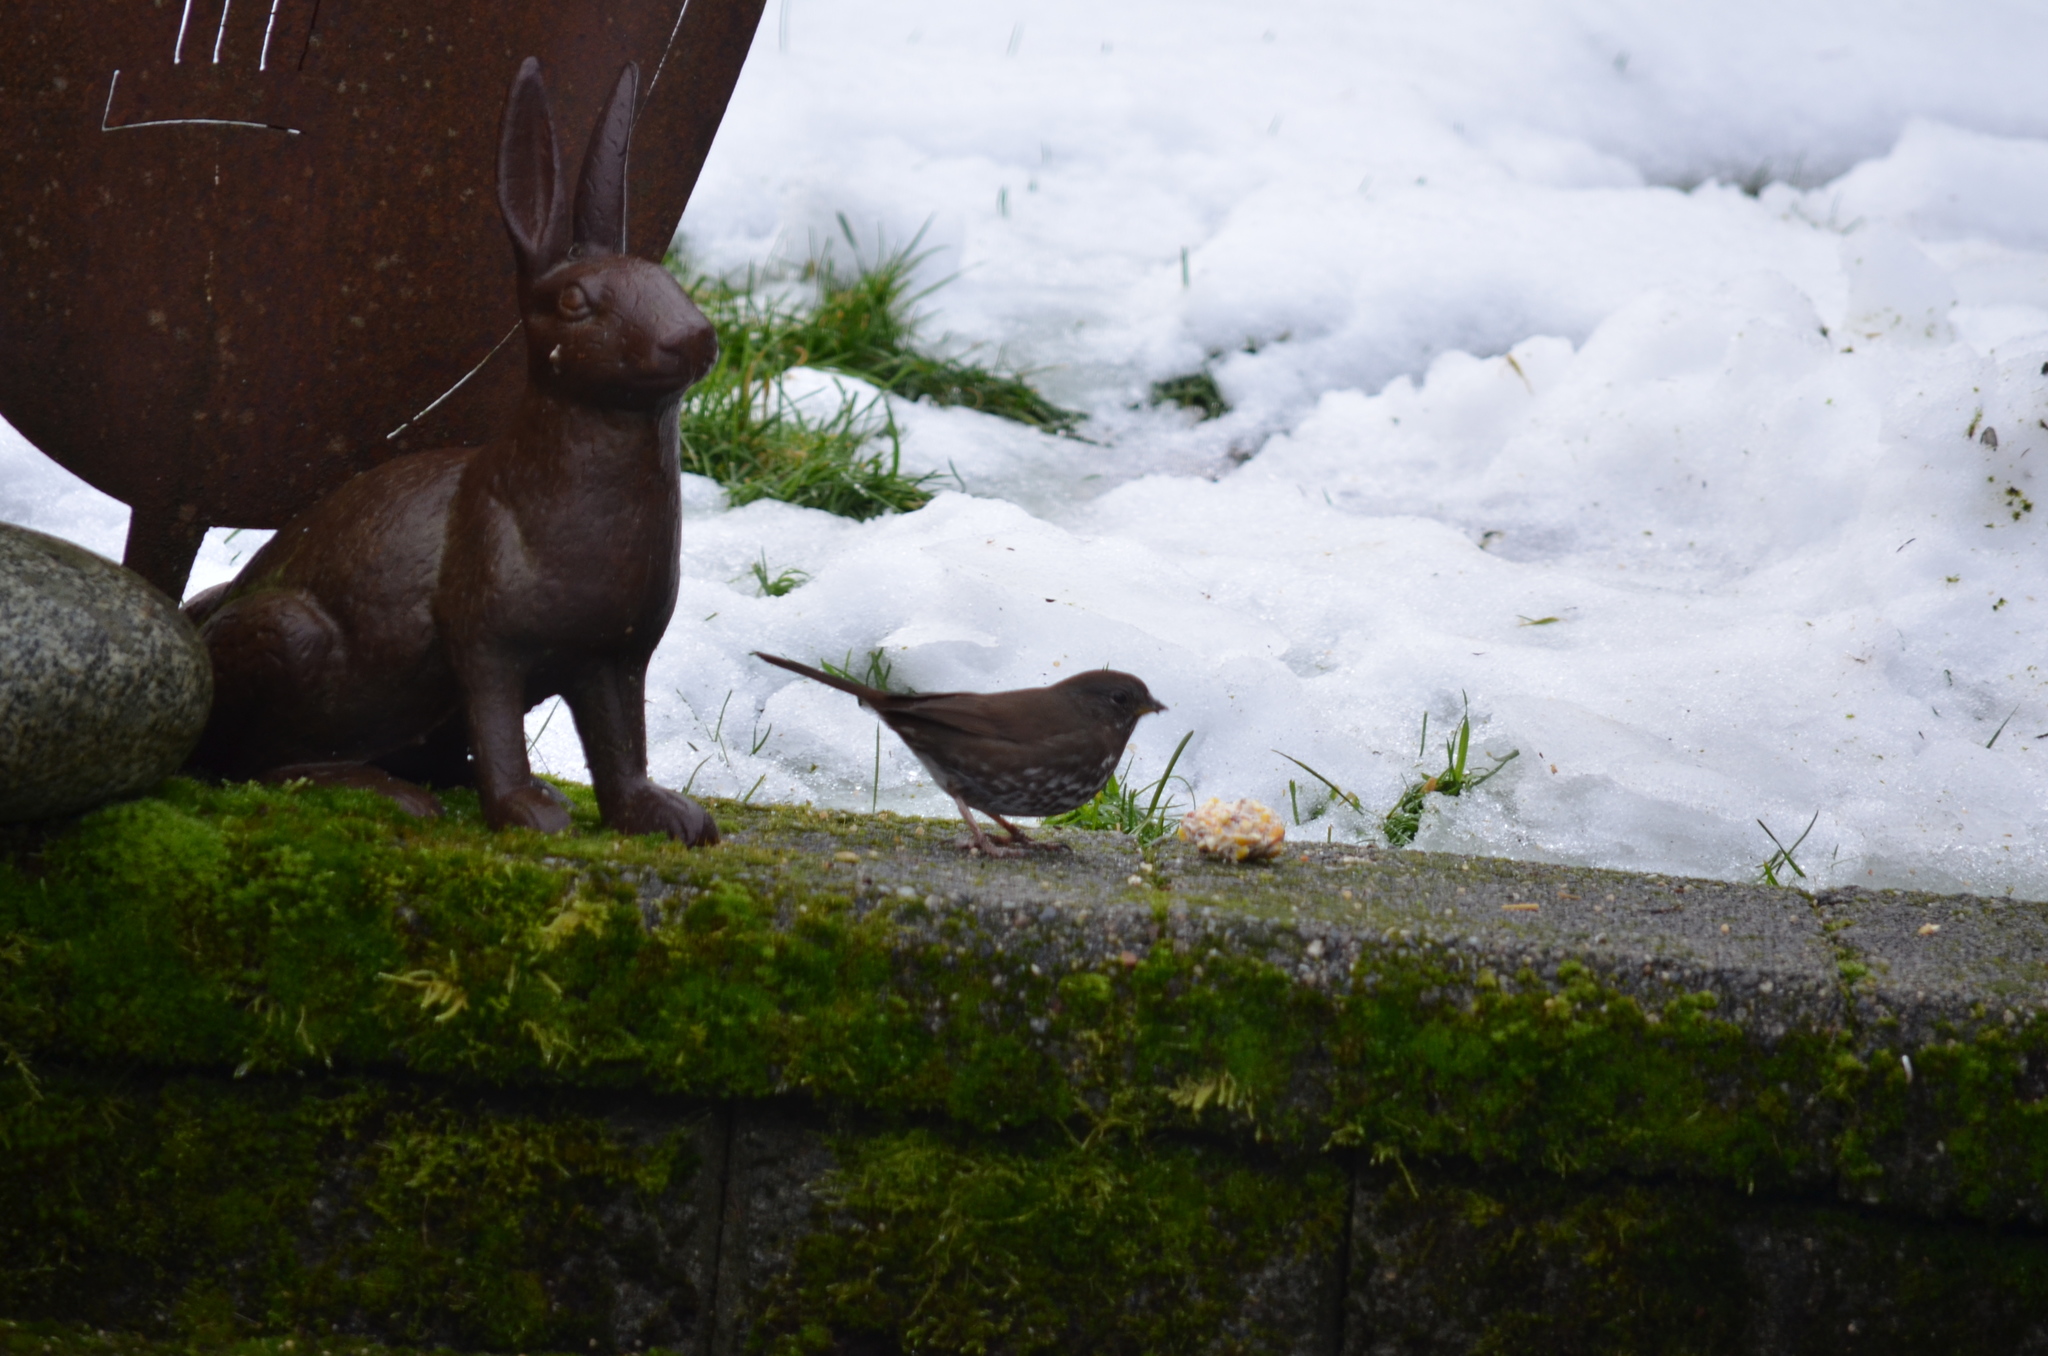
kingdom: Animalia
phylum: Chordata
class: Aves
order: Passeriformes
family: Passerellidae
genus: Passerella
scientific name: Passerella iliaca
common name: Fox sparrow
